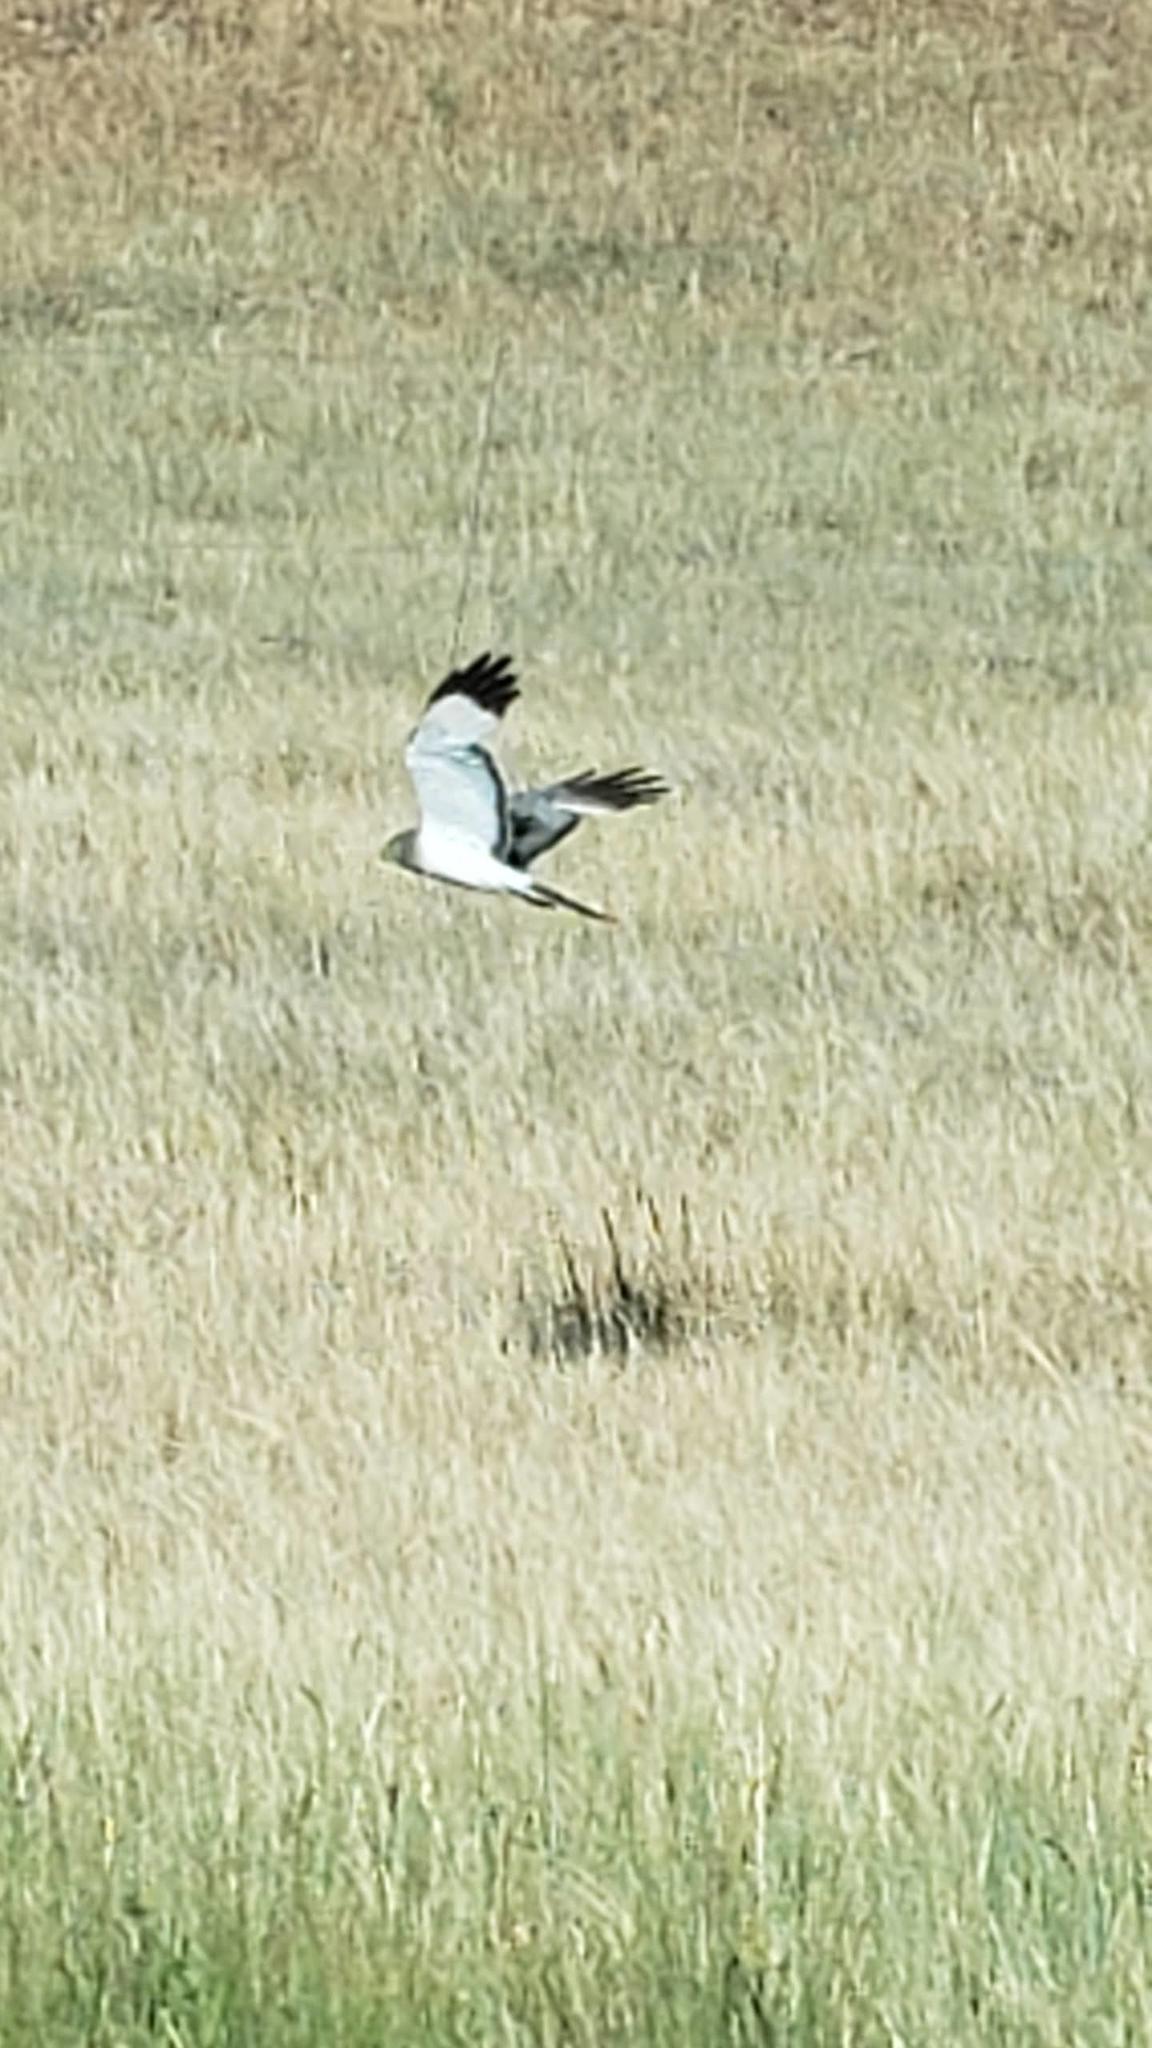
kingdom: Animalia
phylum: Chordata
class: Aves
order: Accipitriformes
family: Accipitridae
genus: Circus
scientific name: Circus cyaneus
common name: Hen harrier
